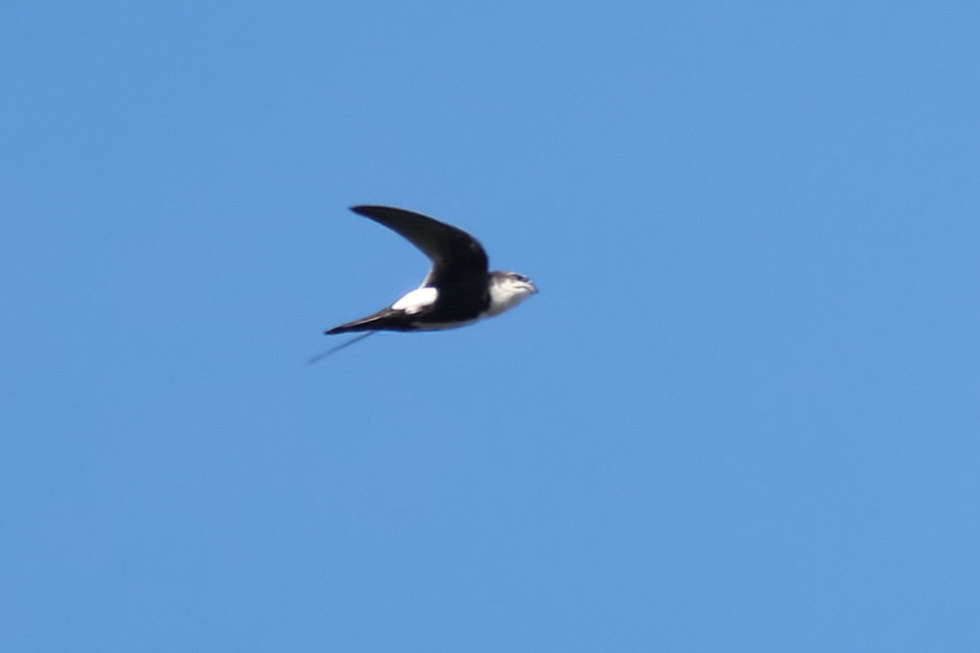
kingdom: Animalia
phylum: Chordata
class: Aves
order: Apodiformes
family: Apodidae
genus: Aeronautes
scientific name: Aeronautes saxatalis
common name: White-throated swift
